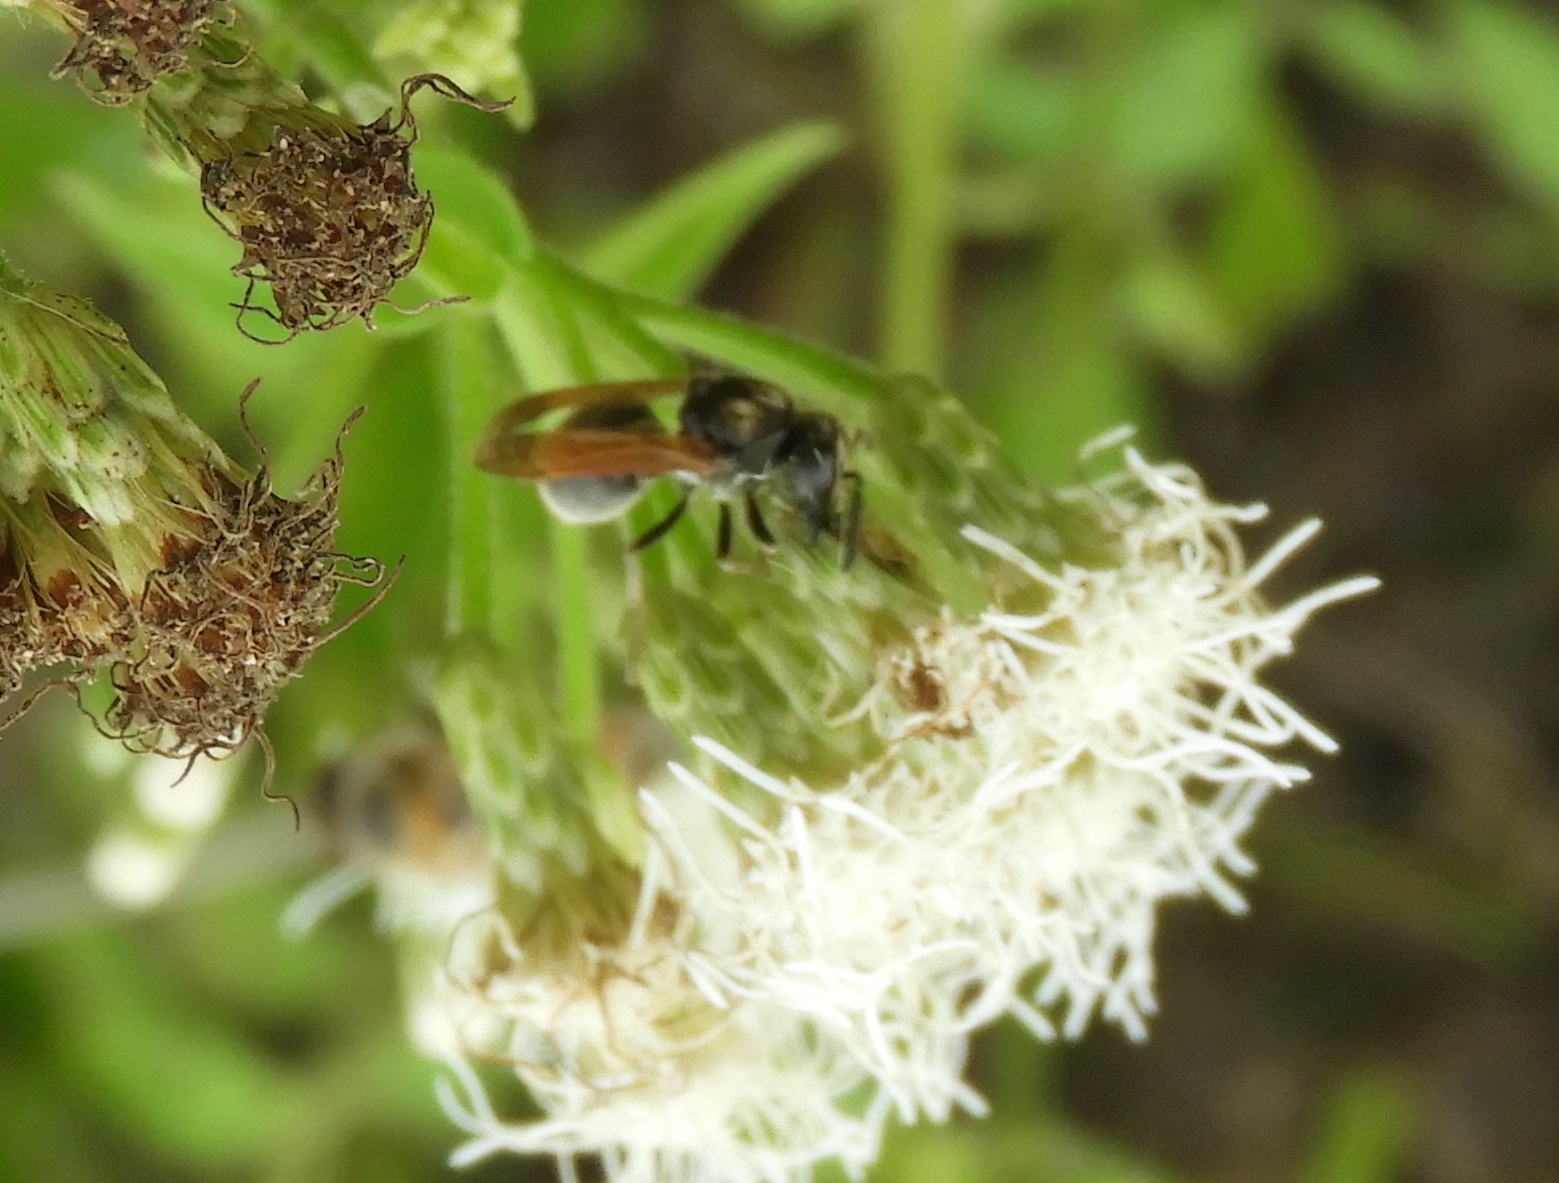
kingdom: Animalia
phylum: Arthropoda
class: Insecta
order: Hymenoptera
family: Vespidae
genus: Brachygastra
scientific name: Brachygastra mellifica
